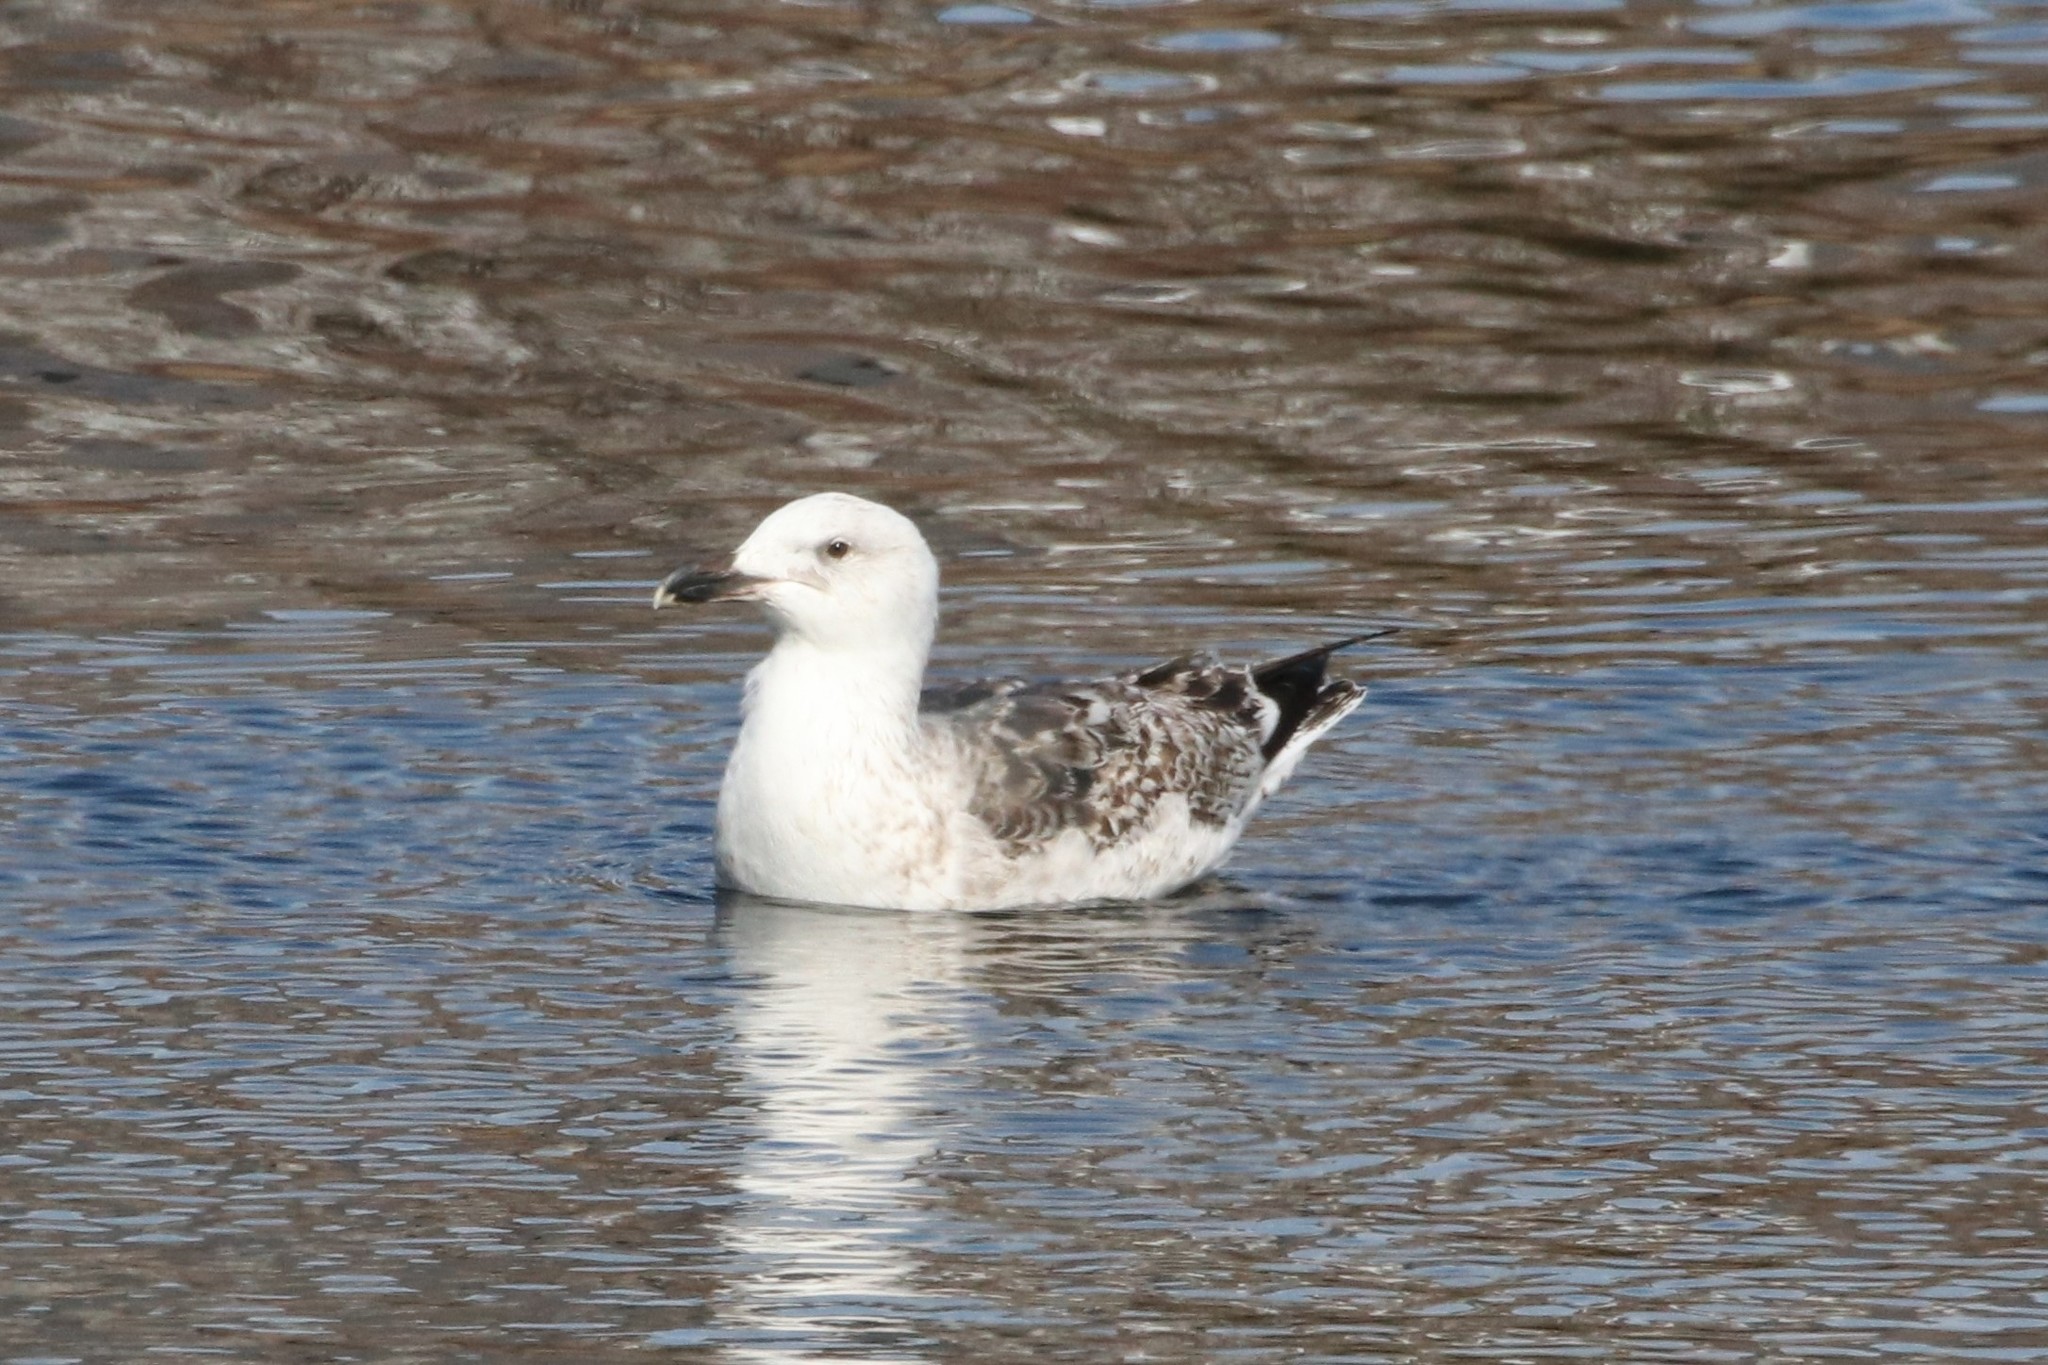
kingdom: Animalia
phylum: Chordata
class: Aves
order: Charadriiformes
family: Laridae
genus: Larus
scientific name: Larus marinus
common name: Great black-backed gull
